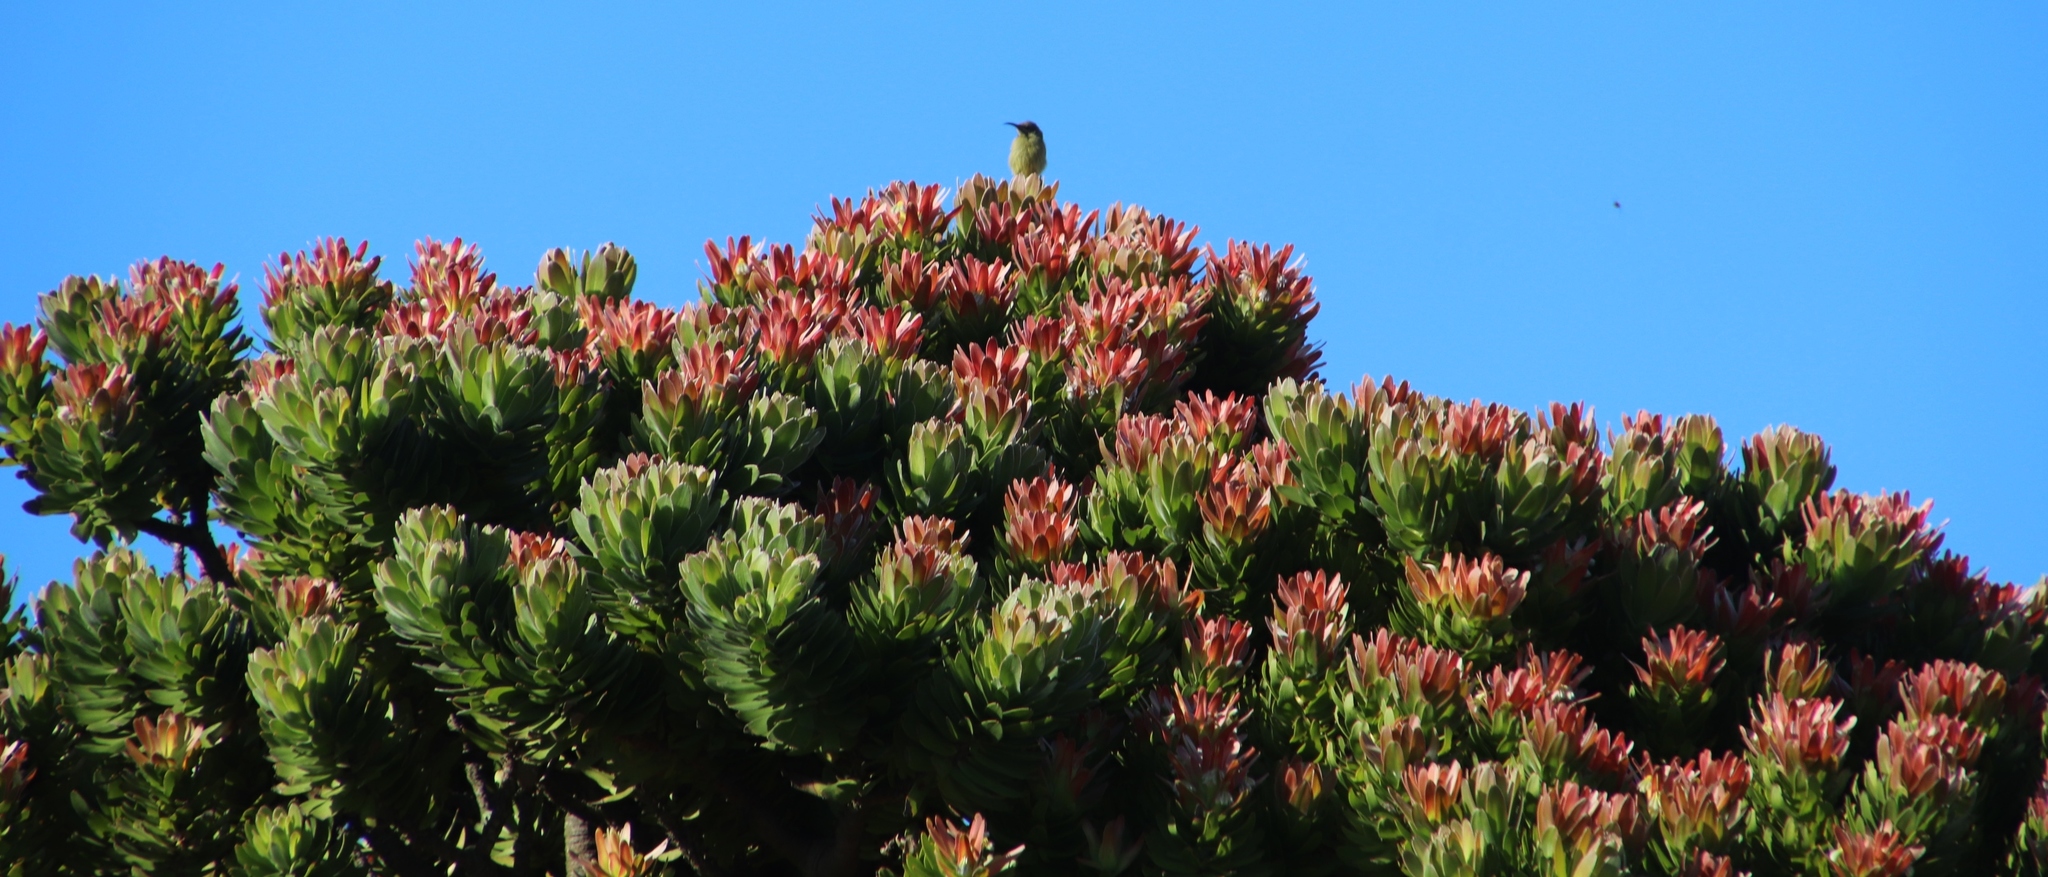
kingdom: Plantae
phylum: Tracheophyta
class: Magnoliopsida
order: Proteales
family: Proteaceae
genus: Mimetes
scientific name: Mimetes fimbriifolius
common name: Fringed bottlebrush
